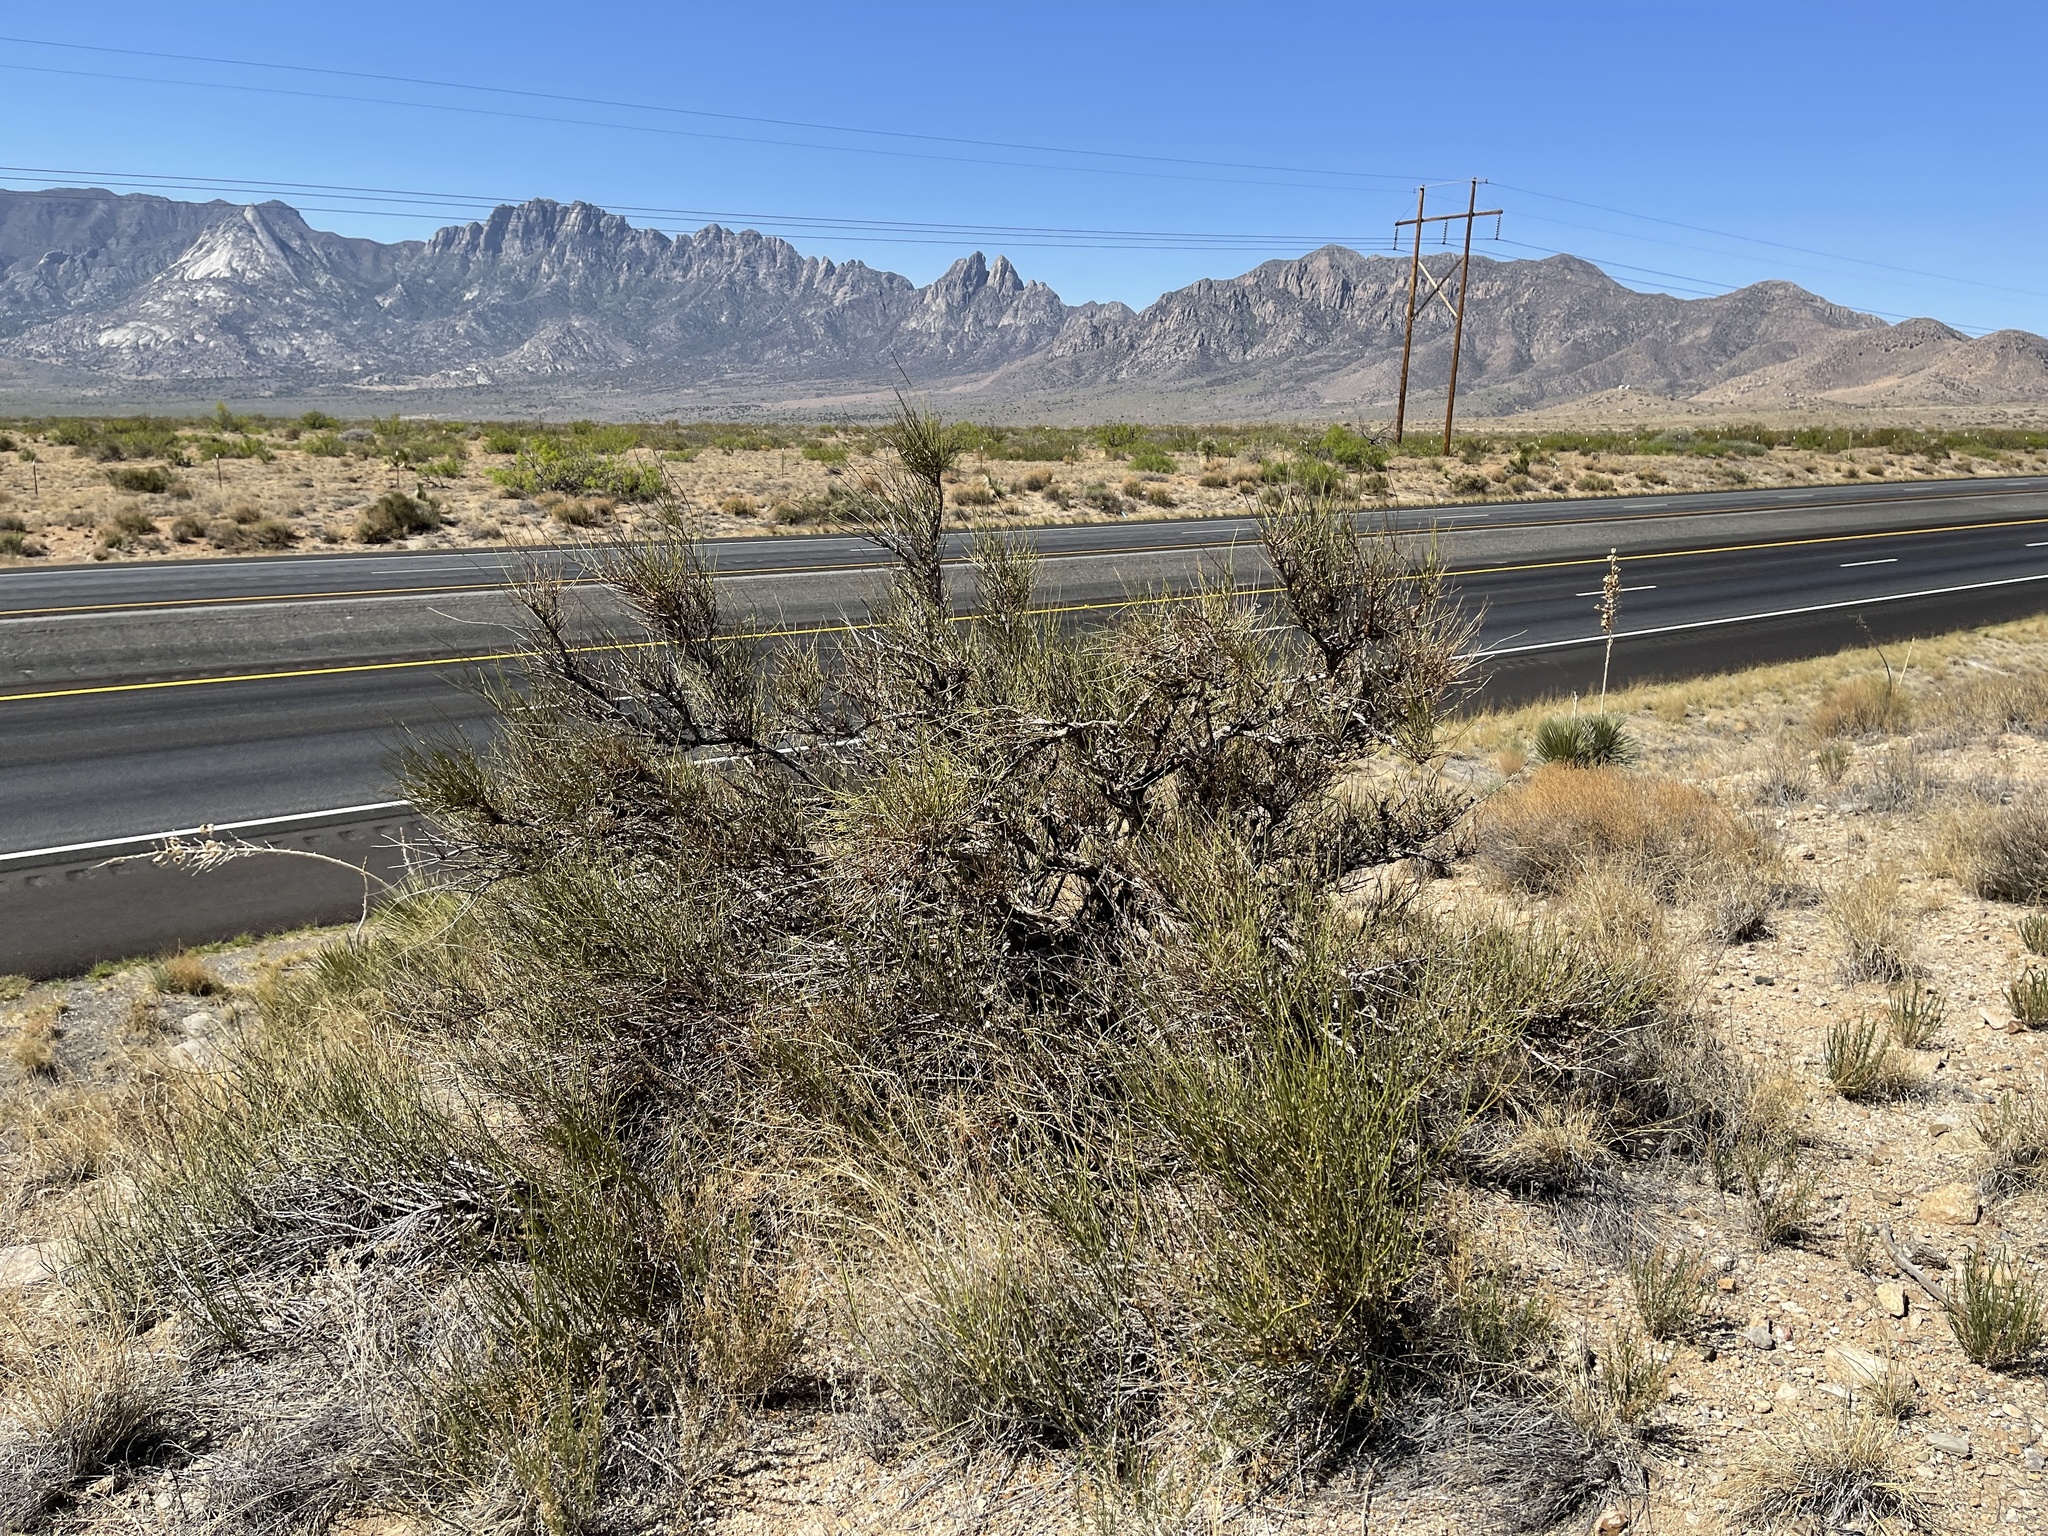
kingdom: Plantae
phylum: Tracheophyta
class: Gnetopsida
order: Ephedrales
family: Ephedraceae
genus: Ephedra
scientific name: Ephedra trifurca
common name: Mexican-tea
